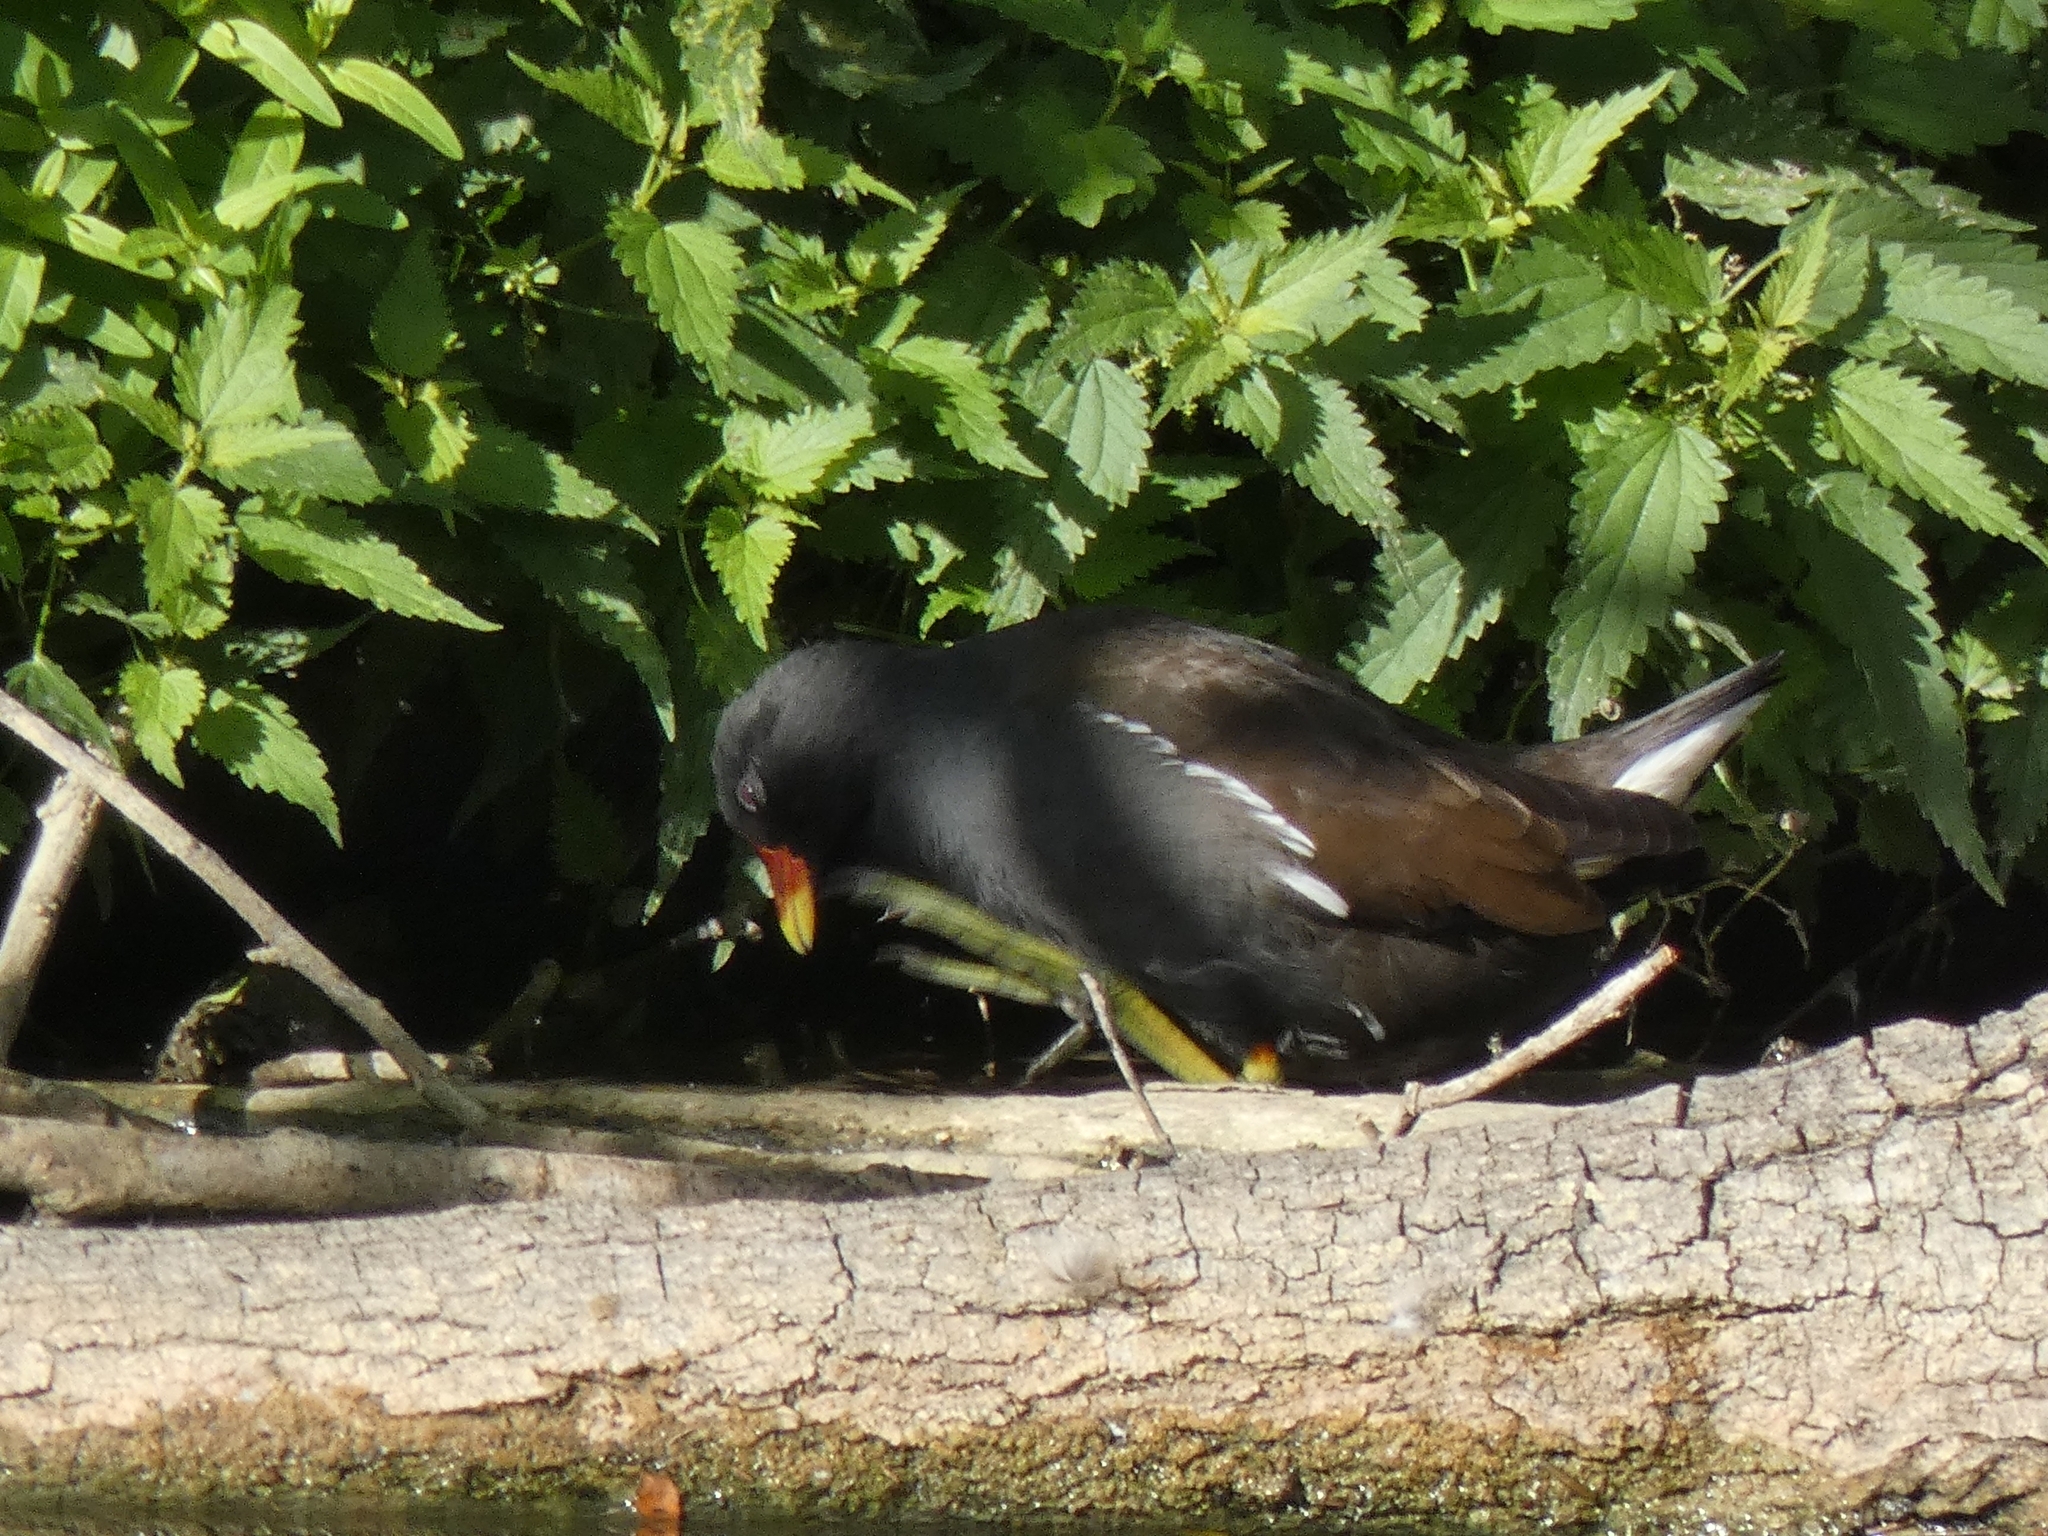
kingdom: Animalia
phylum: Chordata
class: Aves
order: Gruiformes
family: Rallidae
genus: Gallinula
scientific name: Gallinula chloropus
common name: Common moorhen
